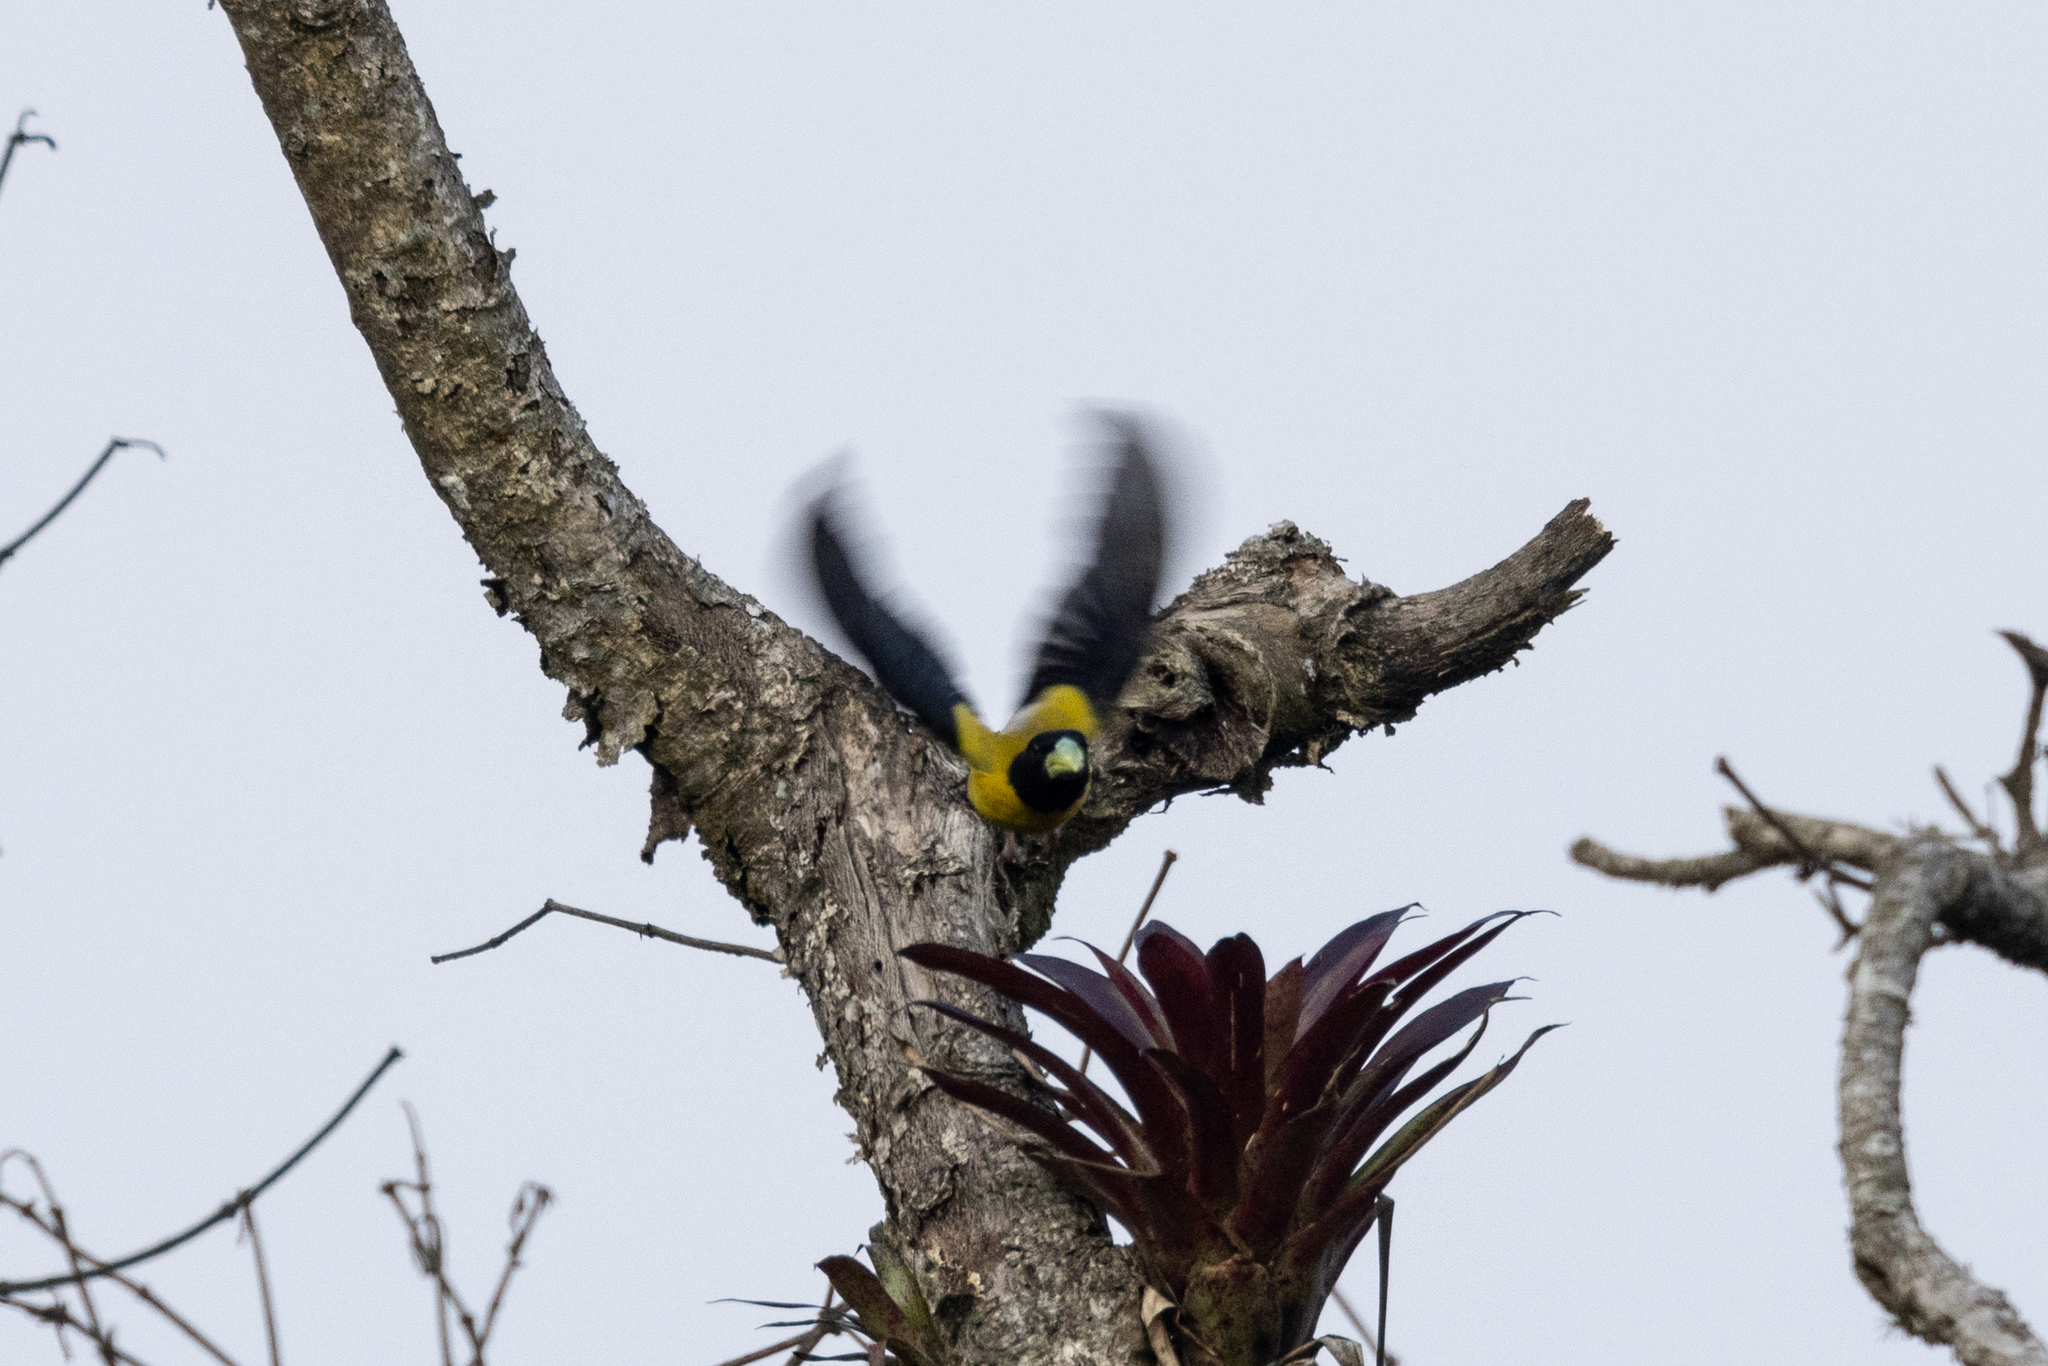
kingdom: Animalia
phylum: Chordata
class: Aves
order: Passeriformes
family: Fringillidae
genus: Hesperiphona
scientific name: Hesperiphona abeillei
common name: Hooded grosbeak
